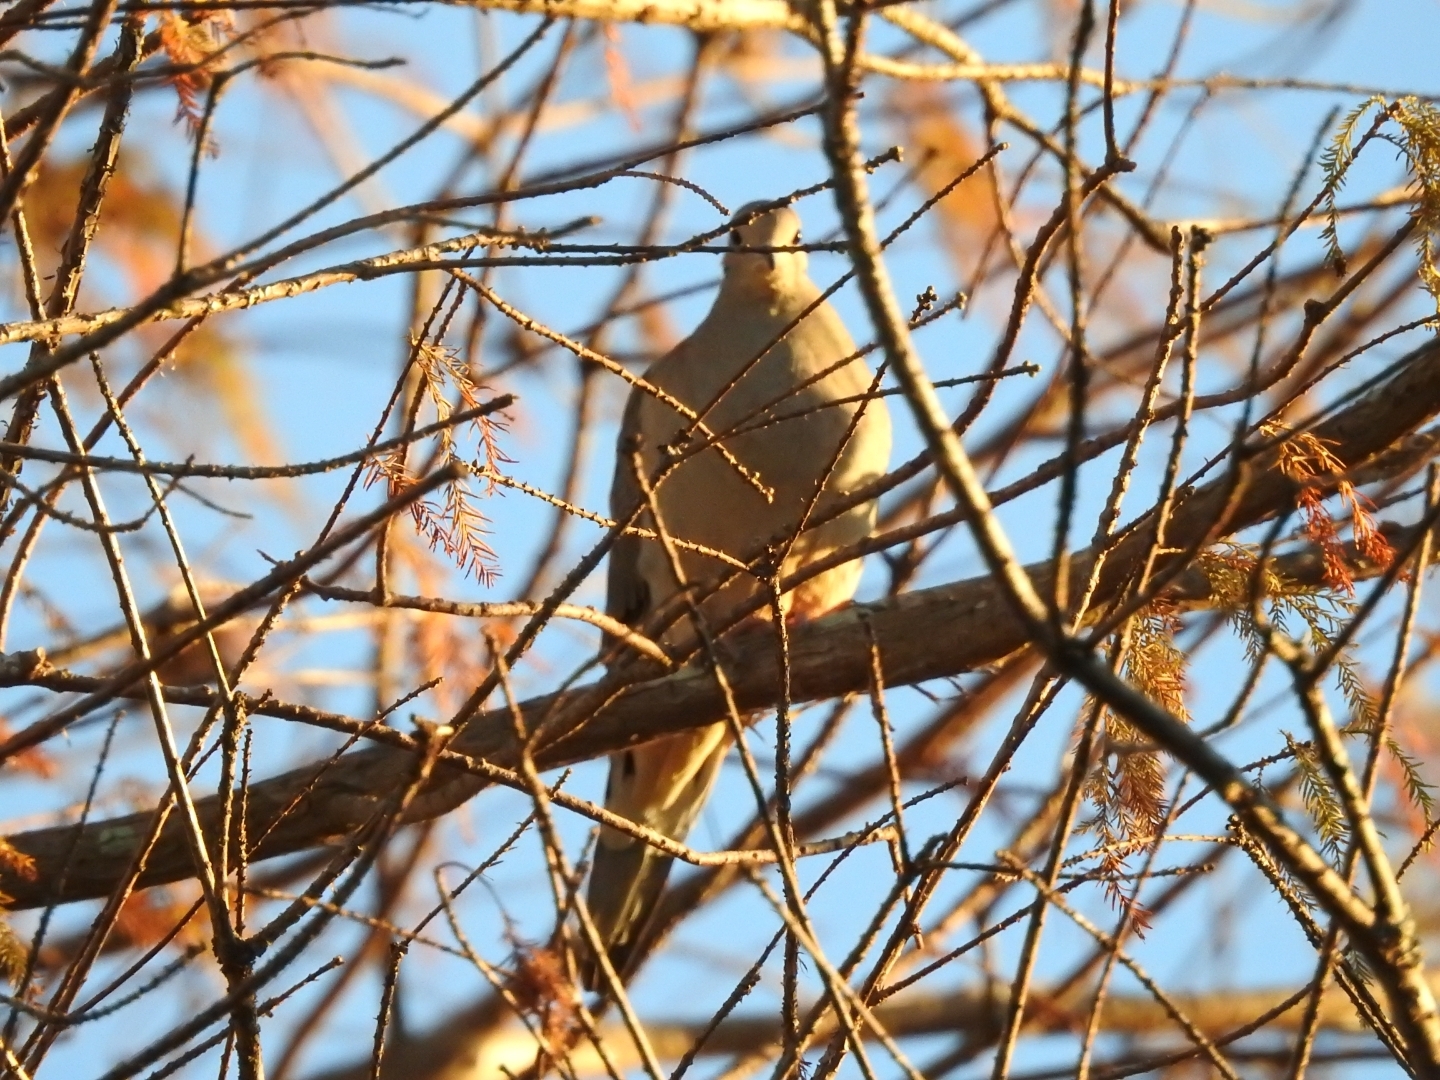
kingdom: Animalia
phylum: Chordata
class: Aves
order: Columbiformes
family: Columbidae
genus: Zenaida
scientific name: Zenaida macroura
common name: Mourning dove
